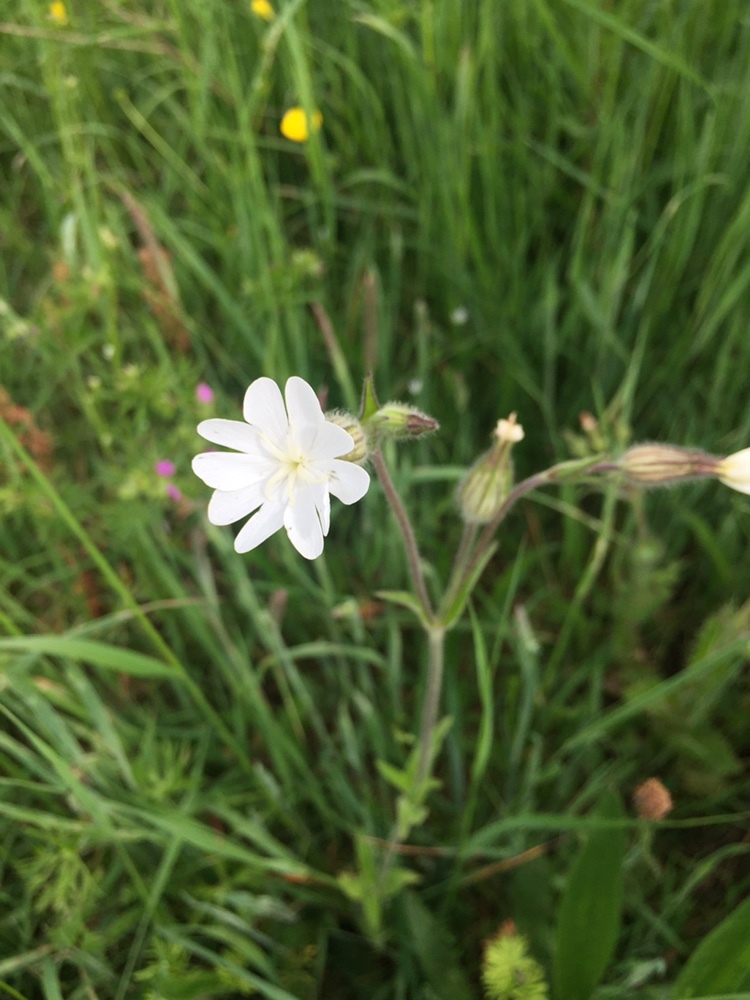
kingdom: Plantae
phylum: Tracheophyta
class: Magnoliopsida
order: Caryophyllales
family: Caryophyllaceae
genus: Silene
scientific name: Silene latifolia
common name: White campion
